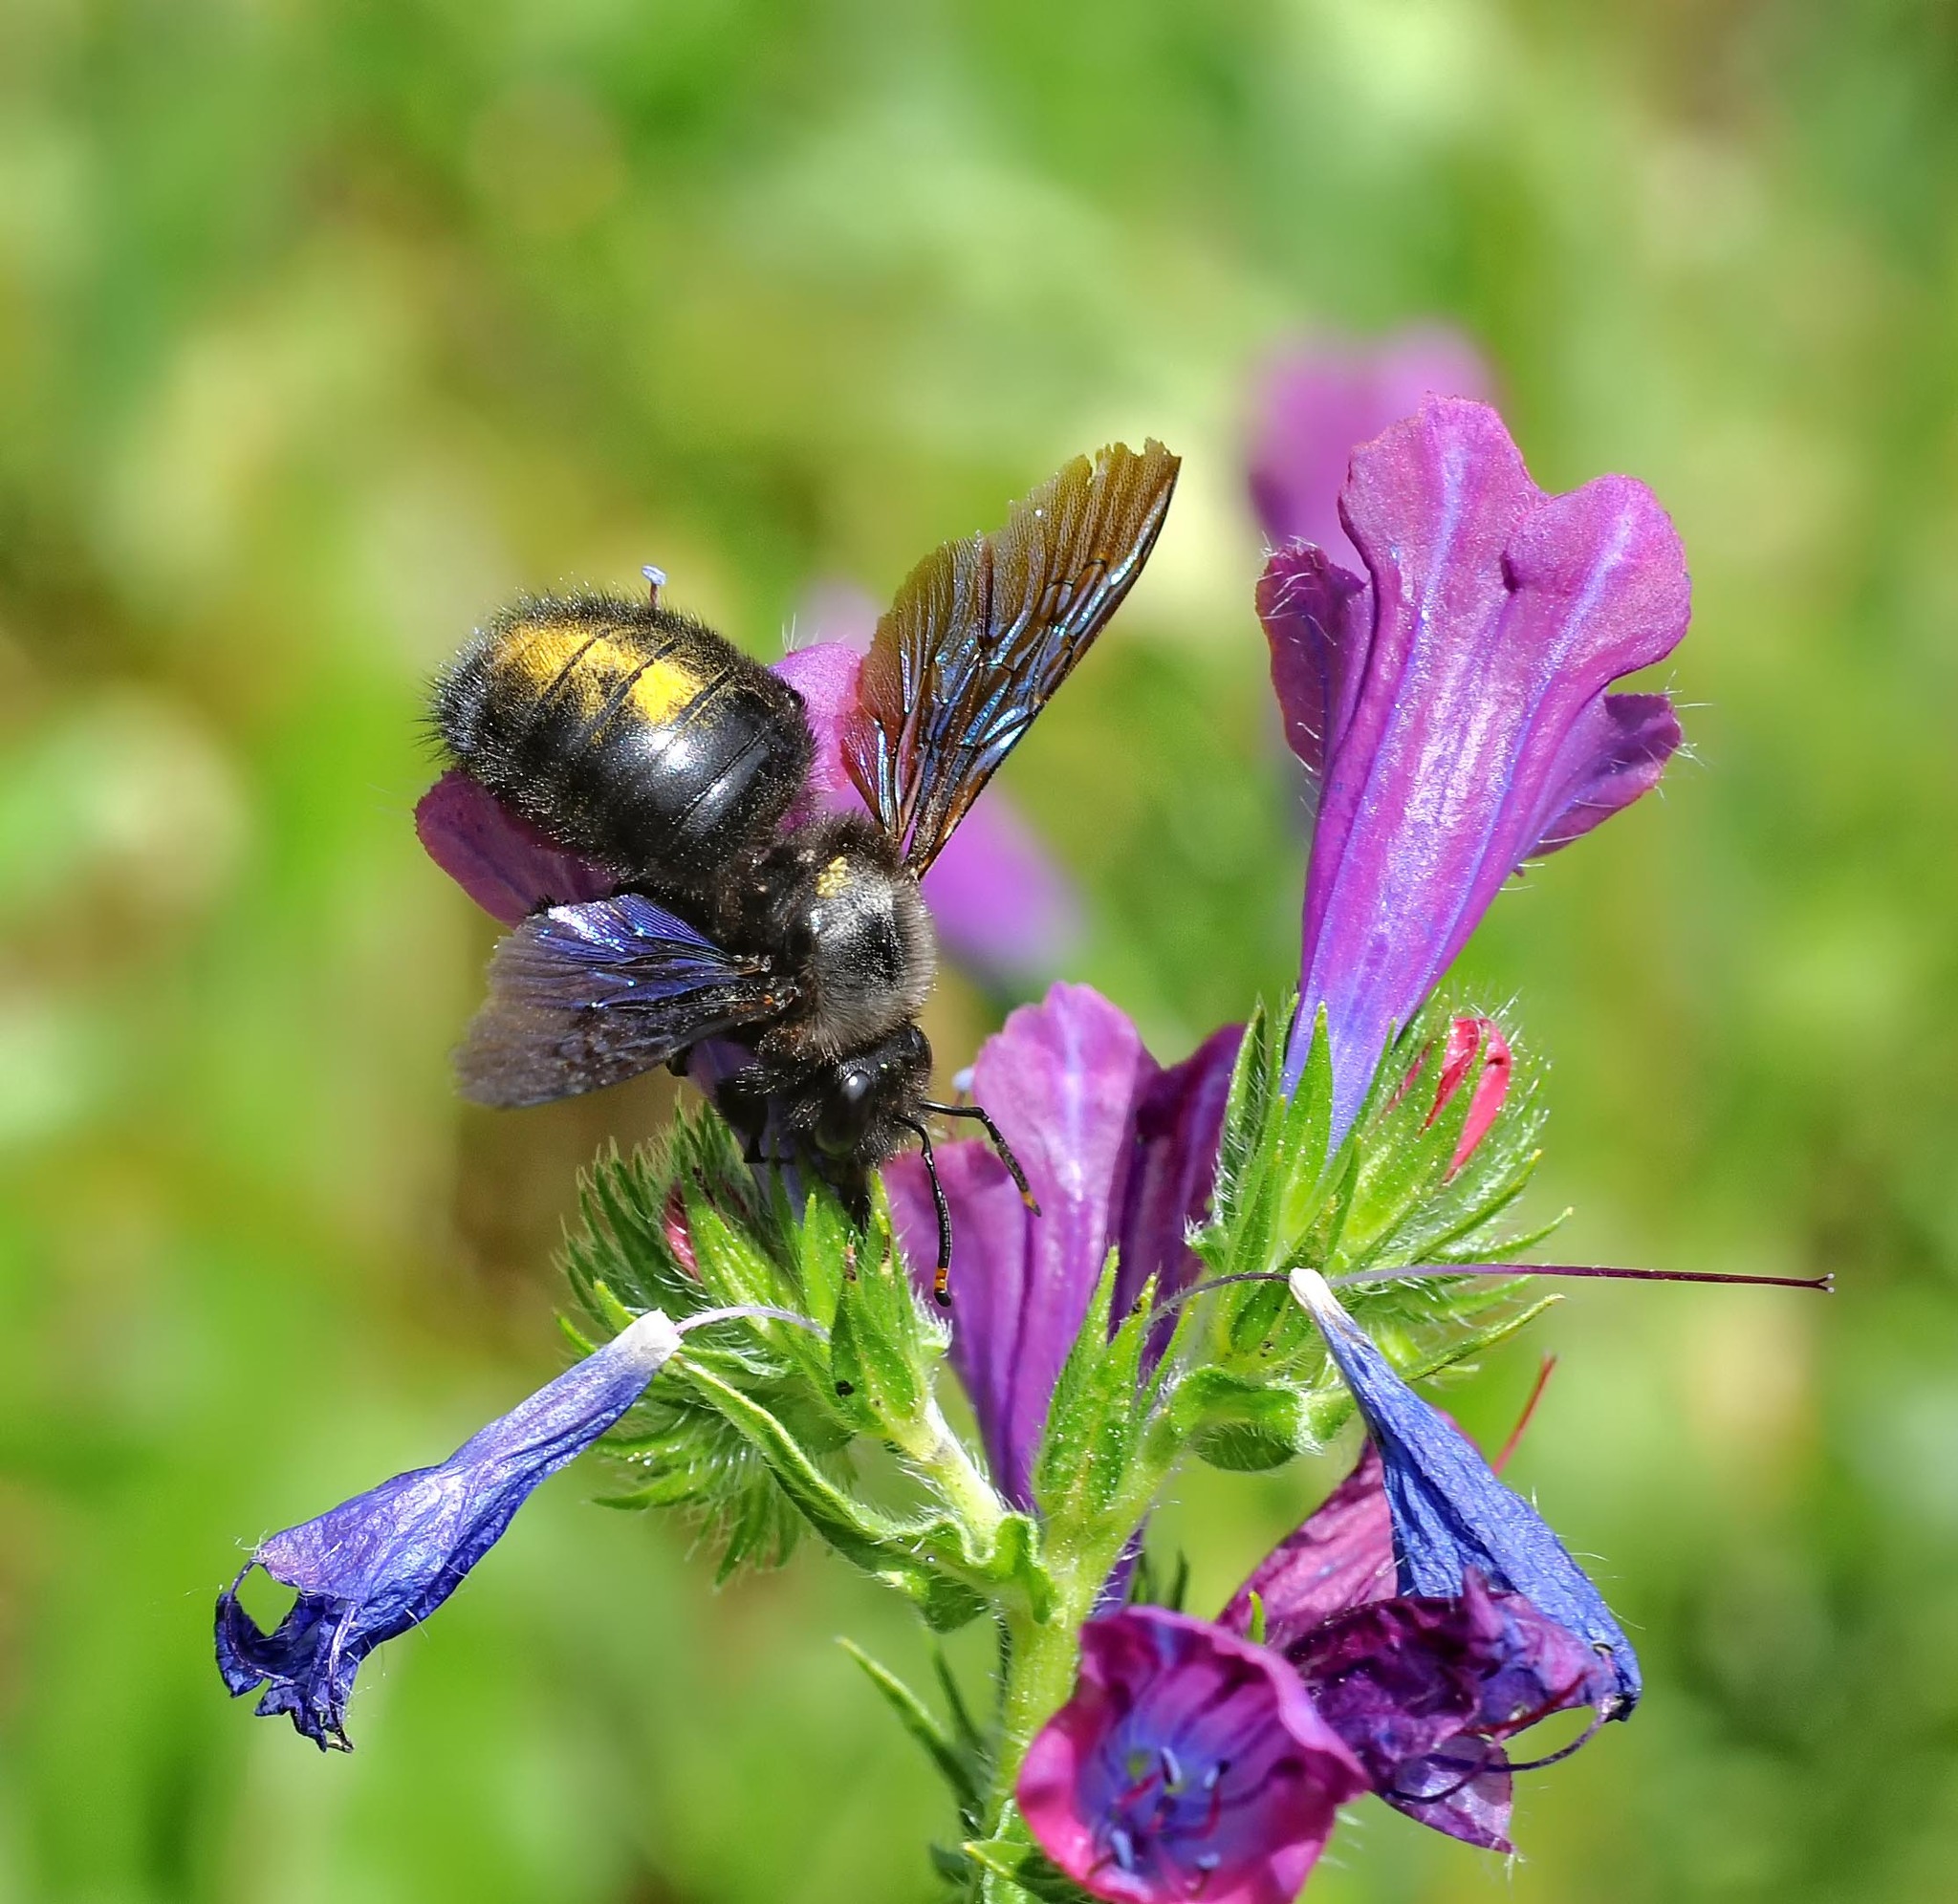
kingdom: Animalia
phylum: Arthropoda
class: Insecta
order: Hymenoptera
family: Apidae
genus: Xylocopa
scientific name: Xylocopa violacea
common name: Violet carpenter bee
